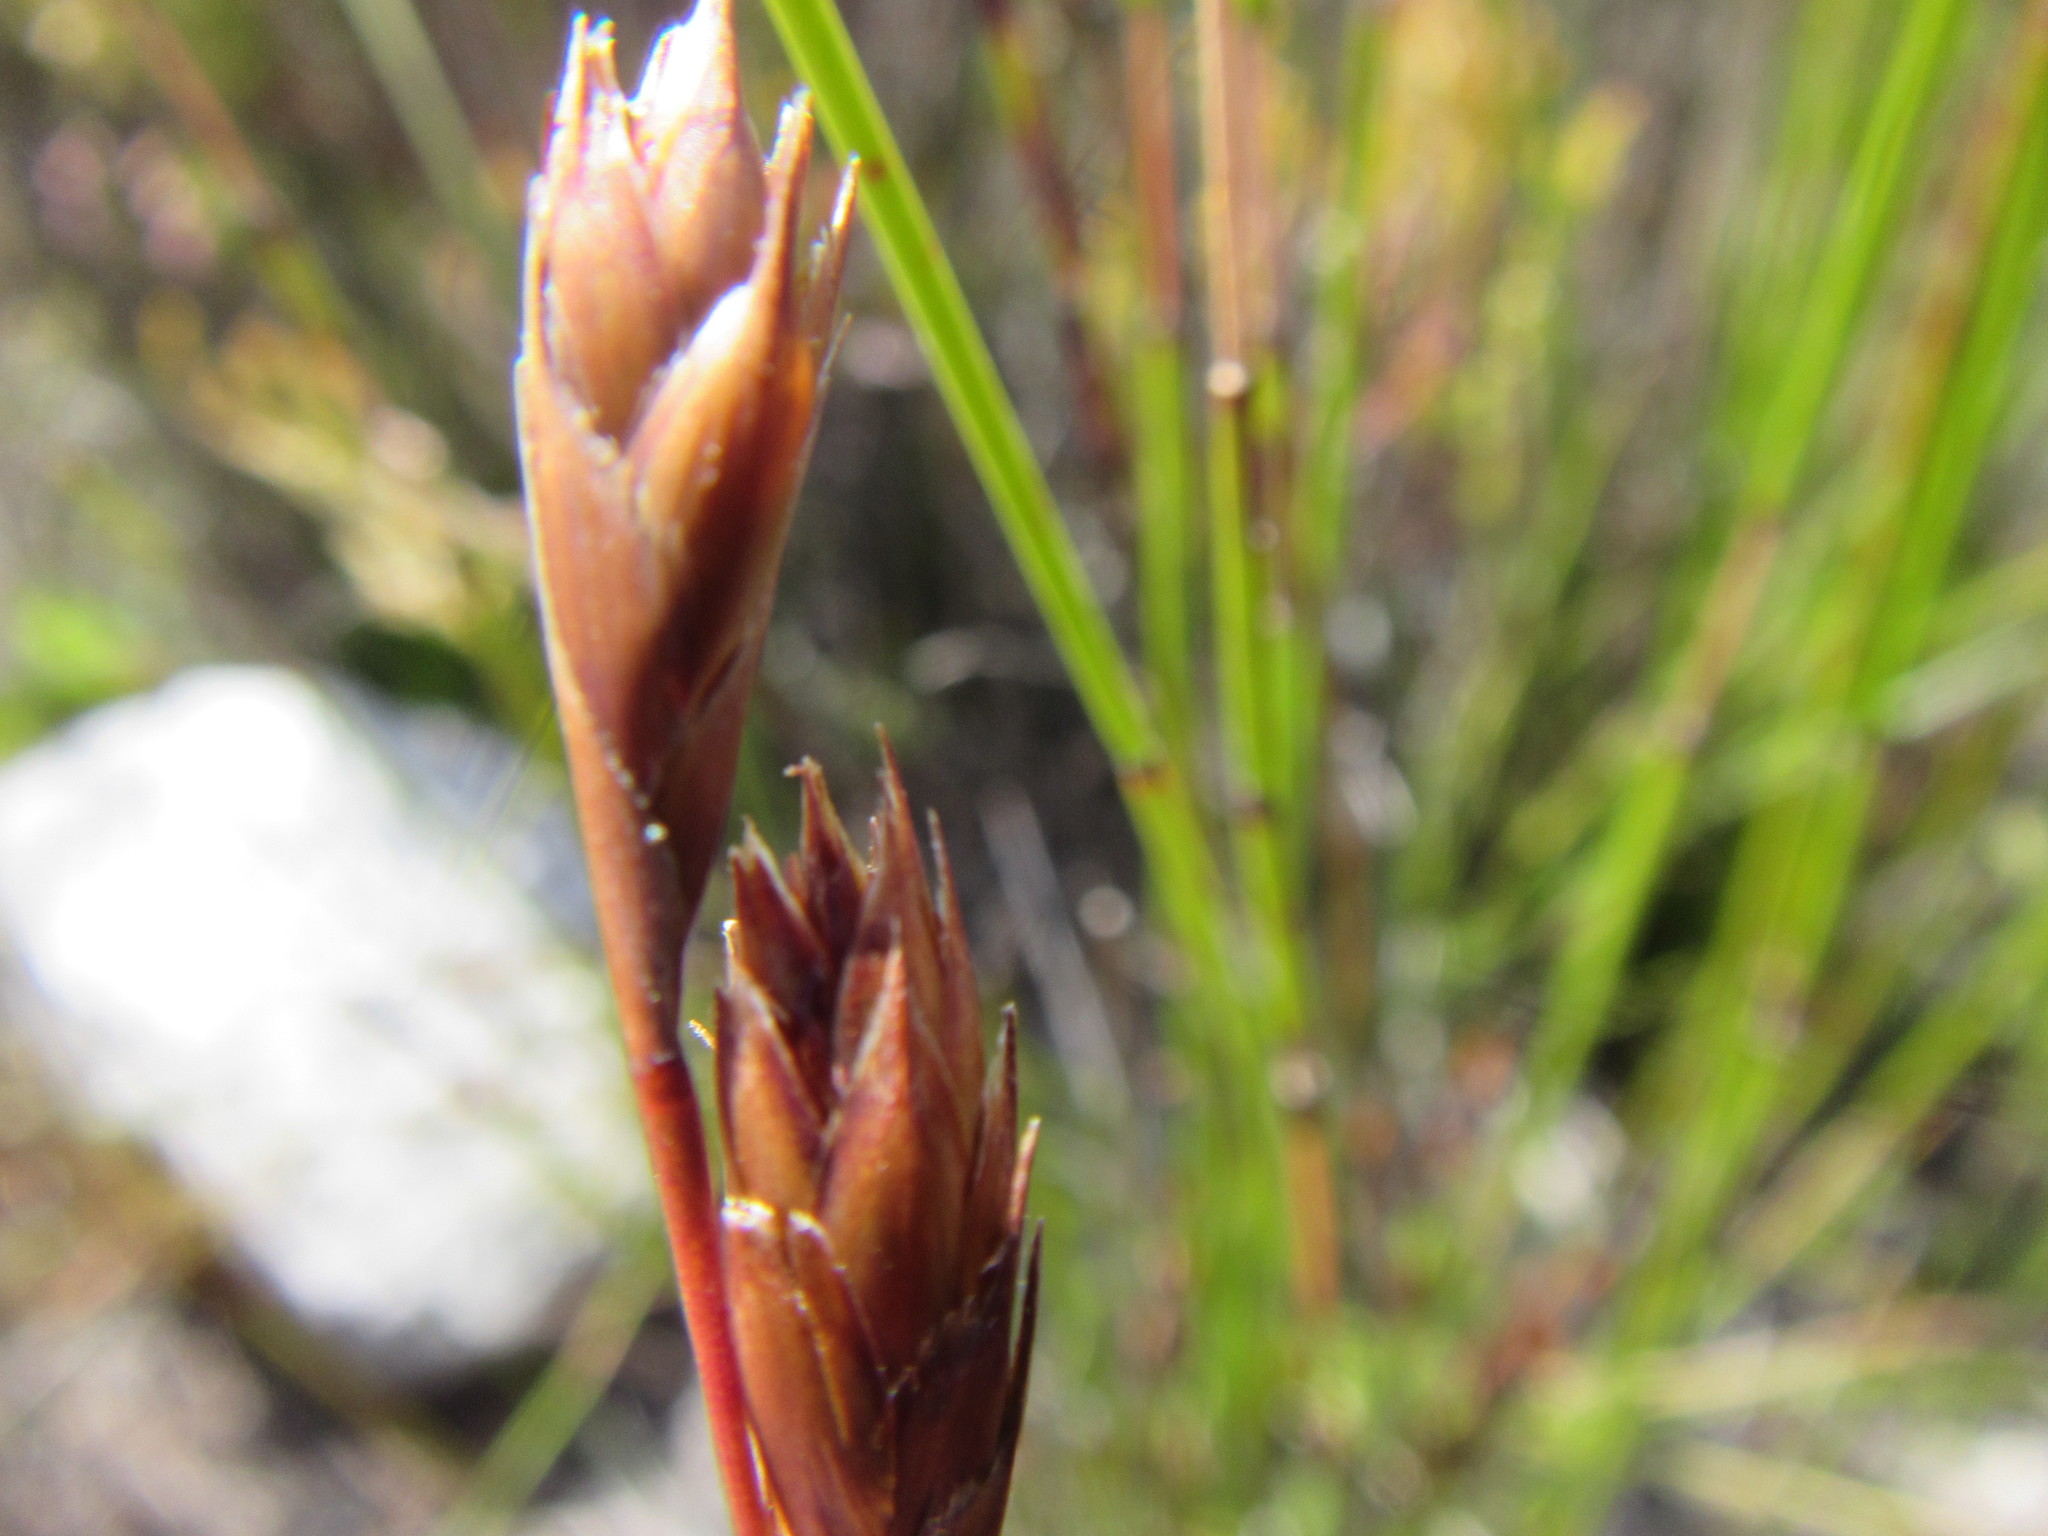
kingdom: Plantae
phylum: Tracheophyta
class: Liliopsida
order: Poales
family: Restionaceae
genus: Thamnochortus
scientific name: Thamnochortus pulcher
